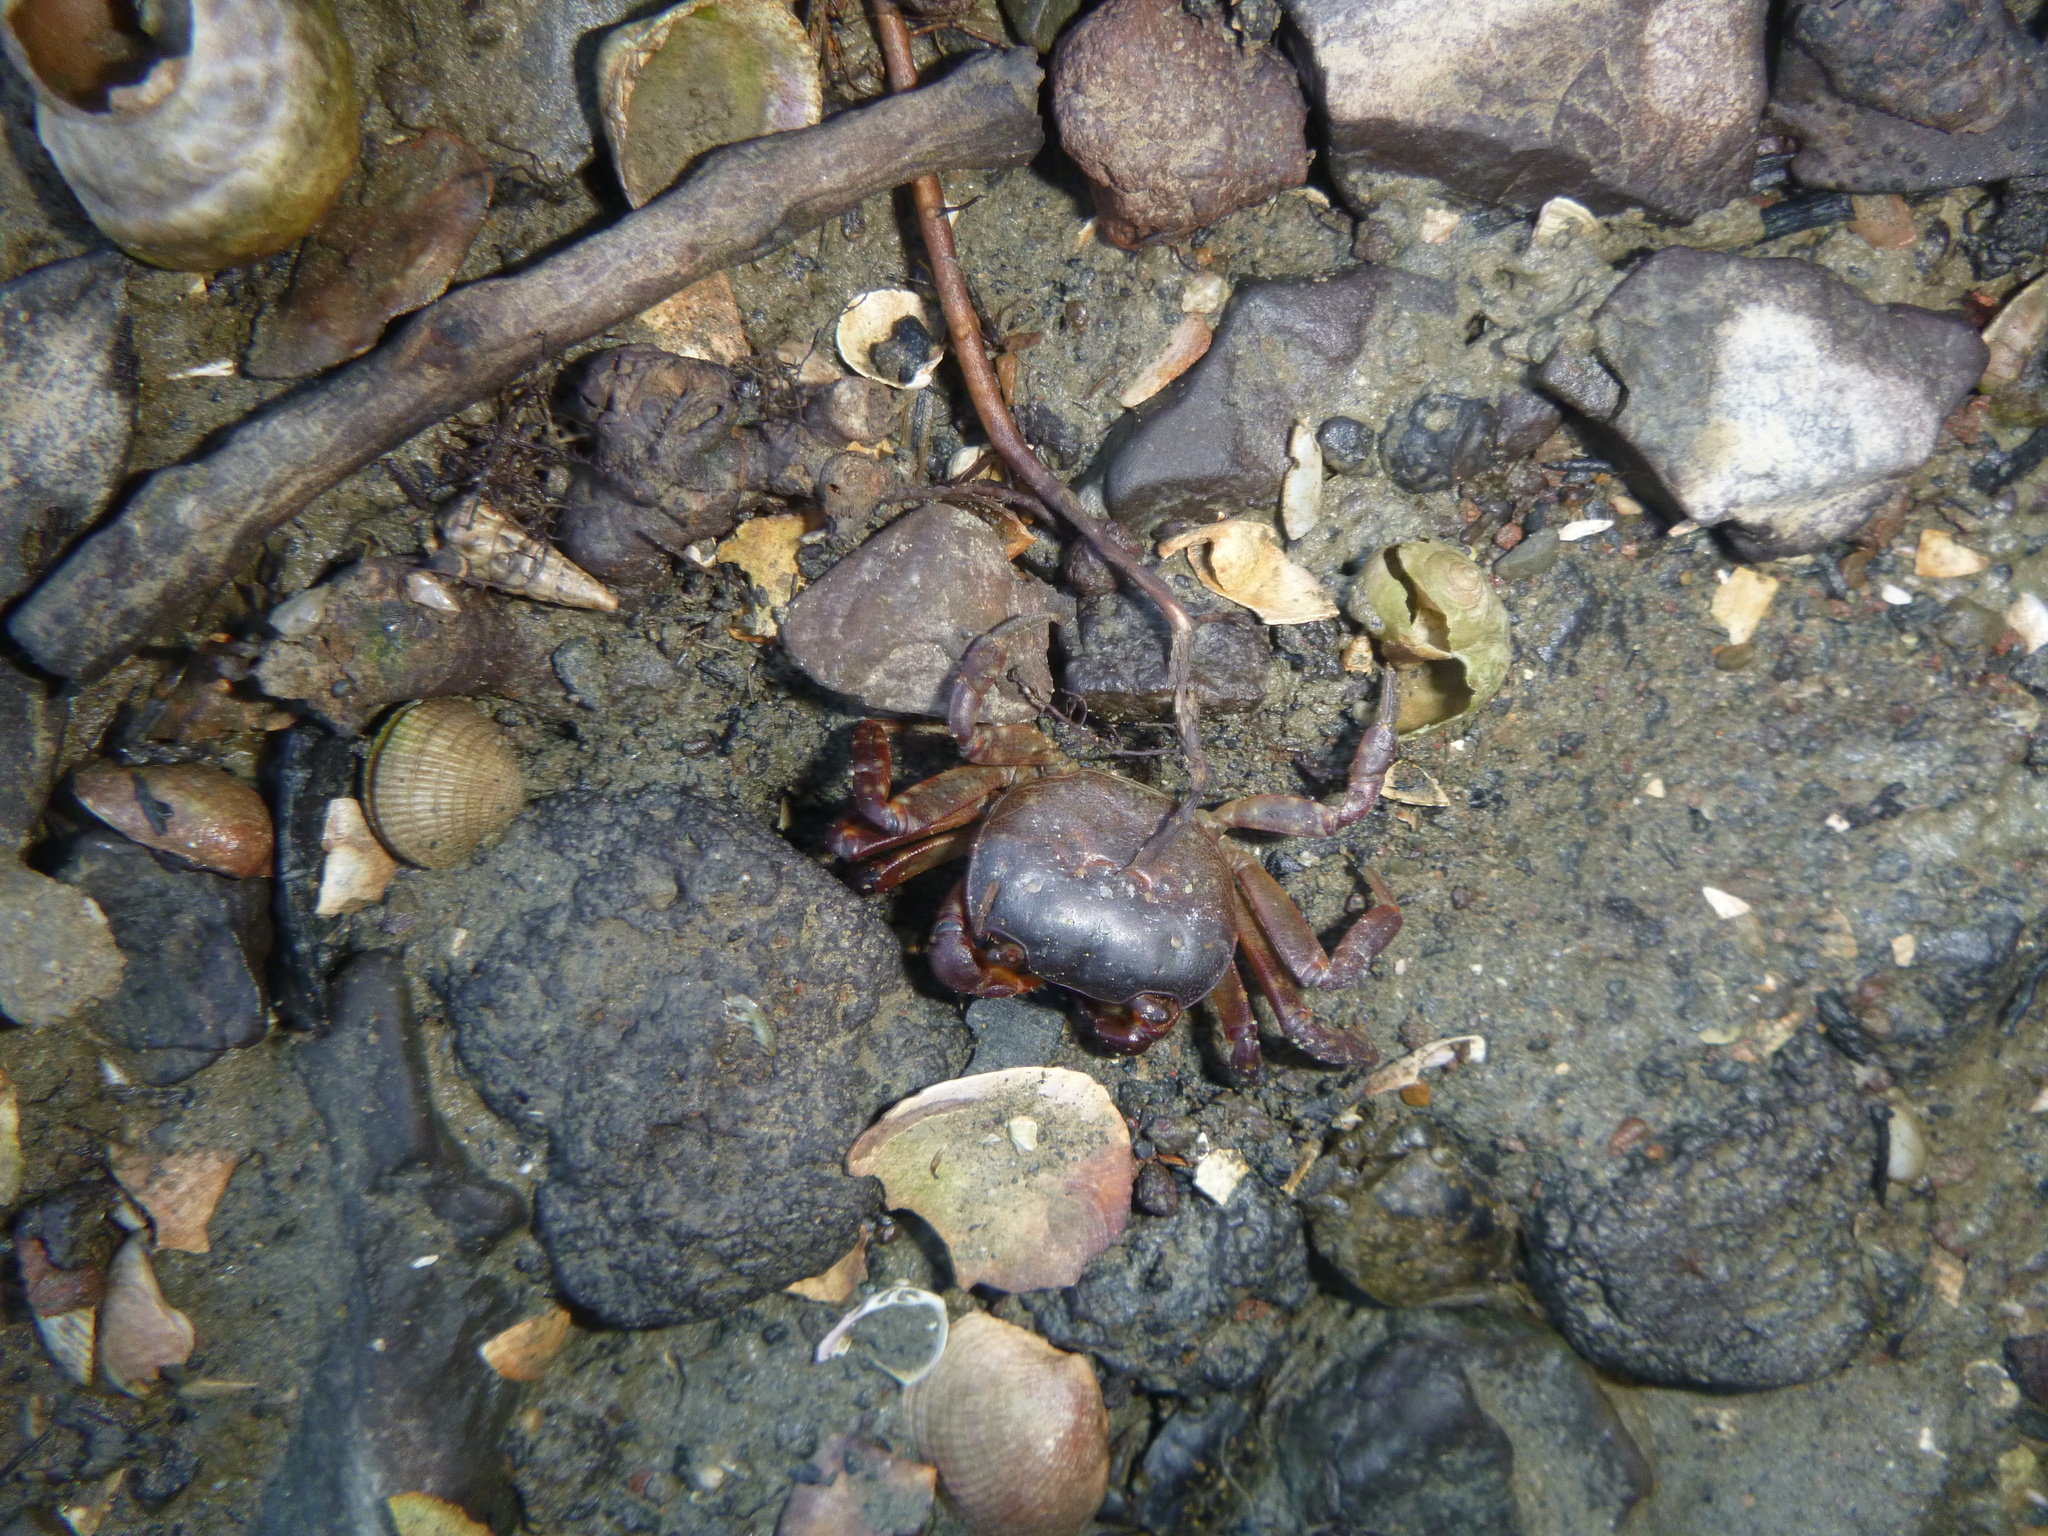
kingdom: Animalia
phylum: Arthropoda
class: Malacostraca
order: Decapoda
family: Varunidae
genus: Cyclograpsus
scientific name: Cyclograpsus lavauxi
